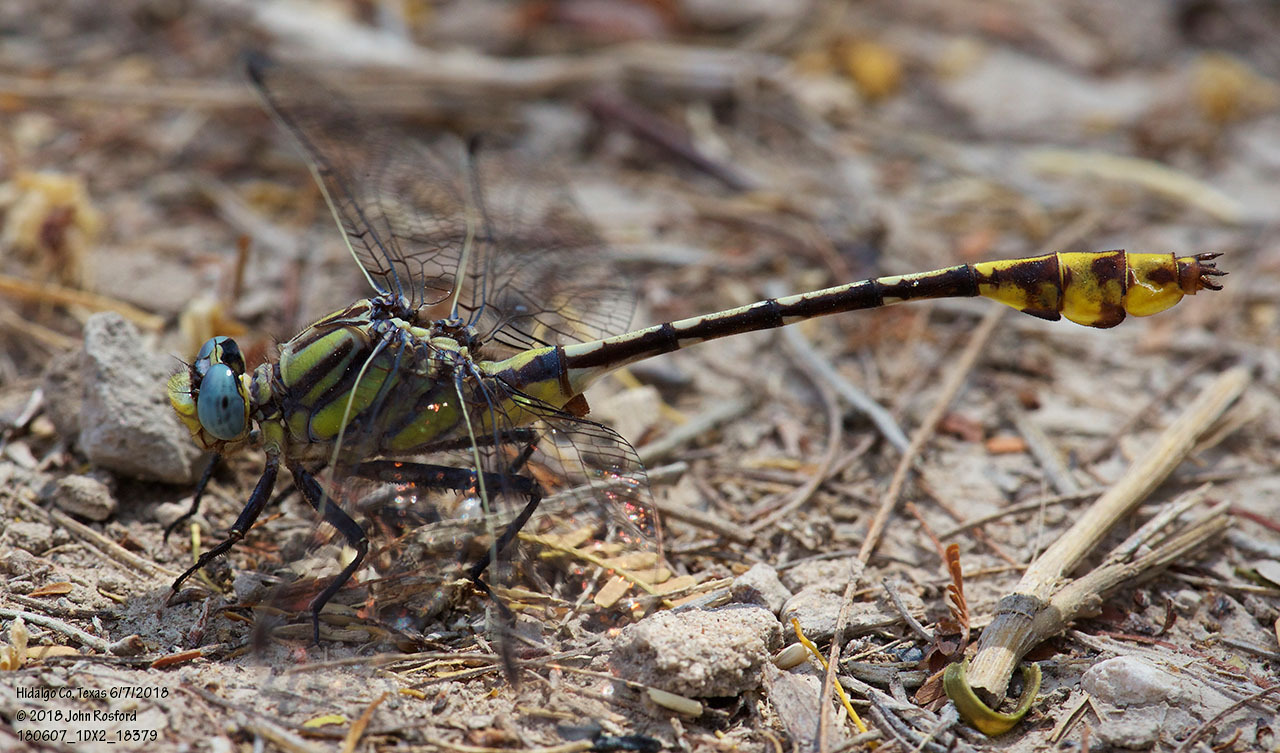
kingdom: Animalia
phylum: Arthropoda
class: Insecta
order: Odonata
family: Gomphidae
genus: Gomphurus
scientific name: Gomphurus gonzalezi
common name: Tamaulipan clubtail
